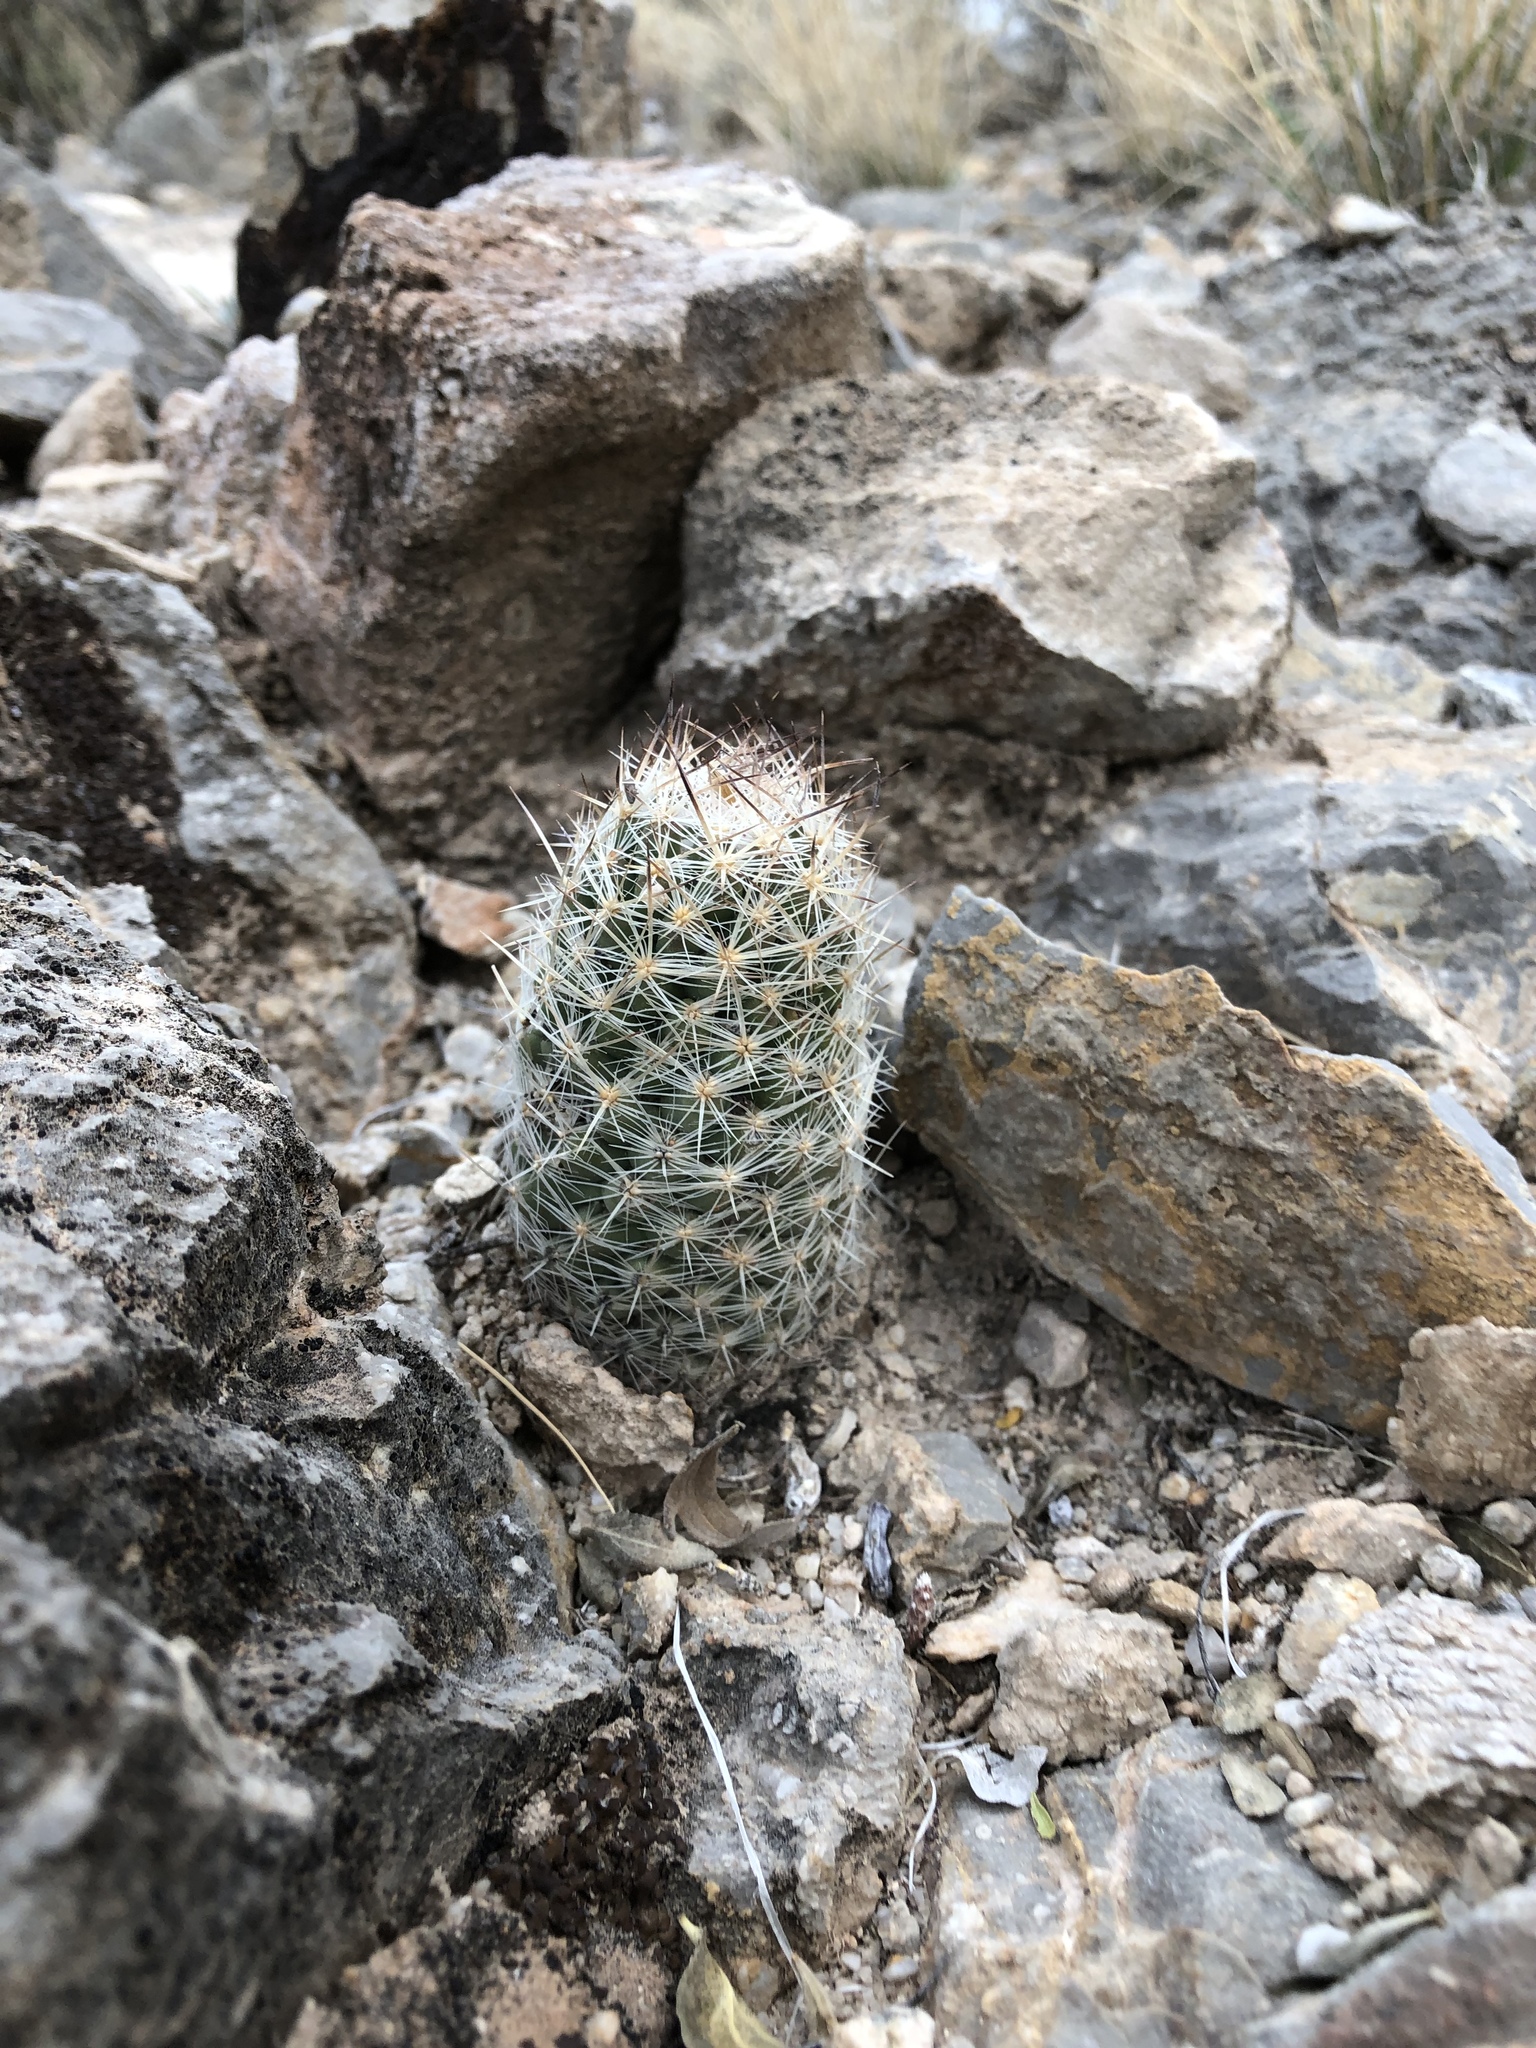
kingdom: Plantae
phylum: Tracheophyta
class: Magnoliopsida
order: Caryophyllales
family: Cactaceae
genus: Pelecyphora
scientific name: Pelecyphora tuberculosa
